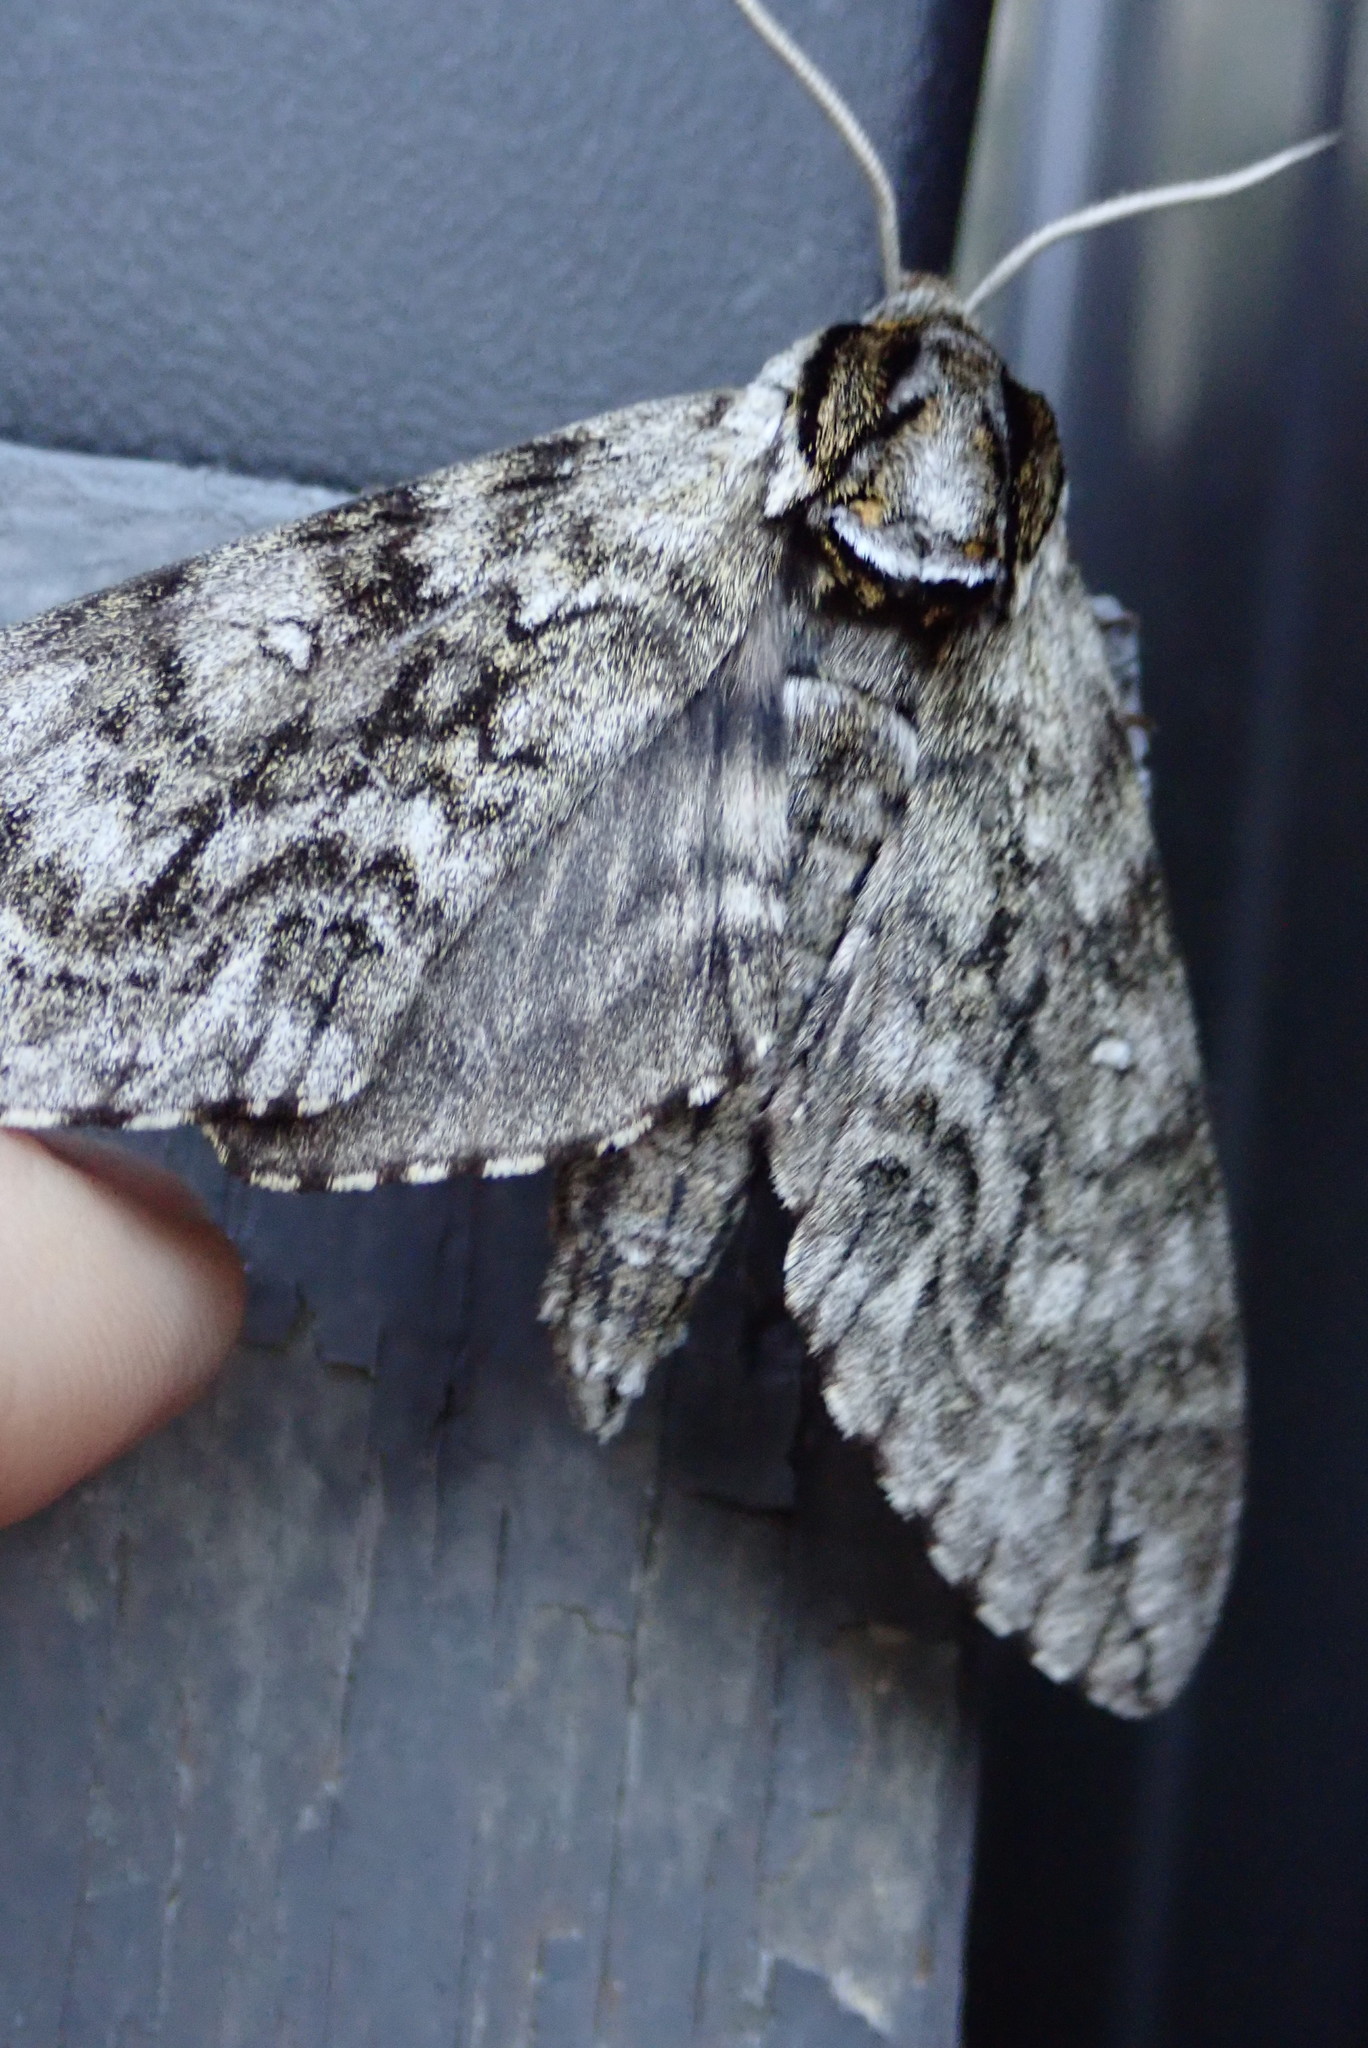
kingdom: Animalia
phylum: Arthropoda
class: Insecta
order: Lepidoptera
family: Sphingidae
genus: Ceratomia
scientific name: Ceratomia undulosa
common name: Waved sphinx
